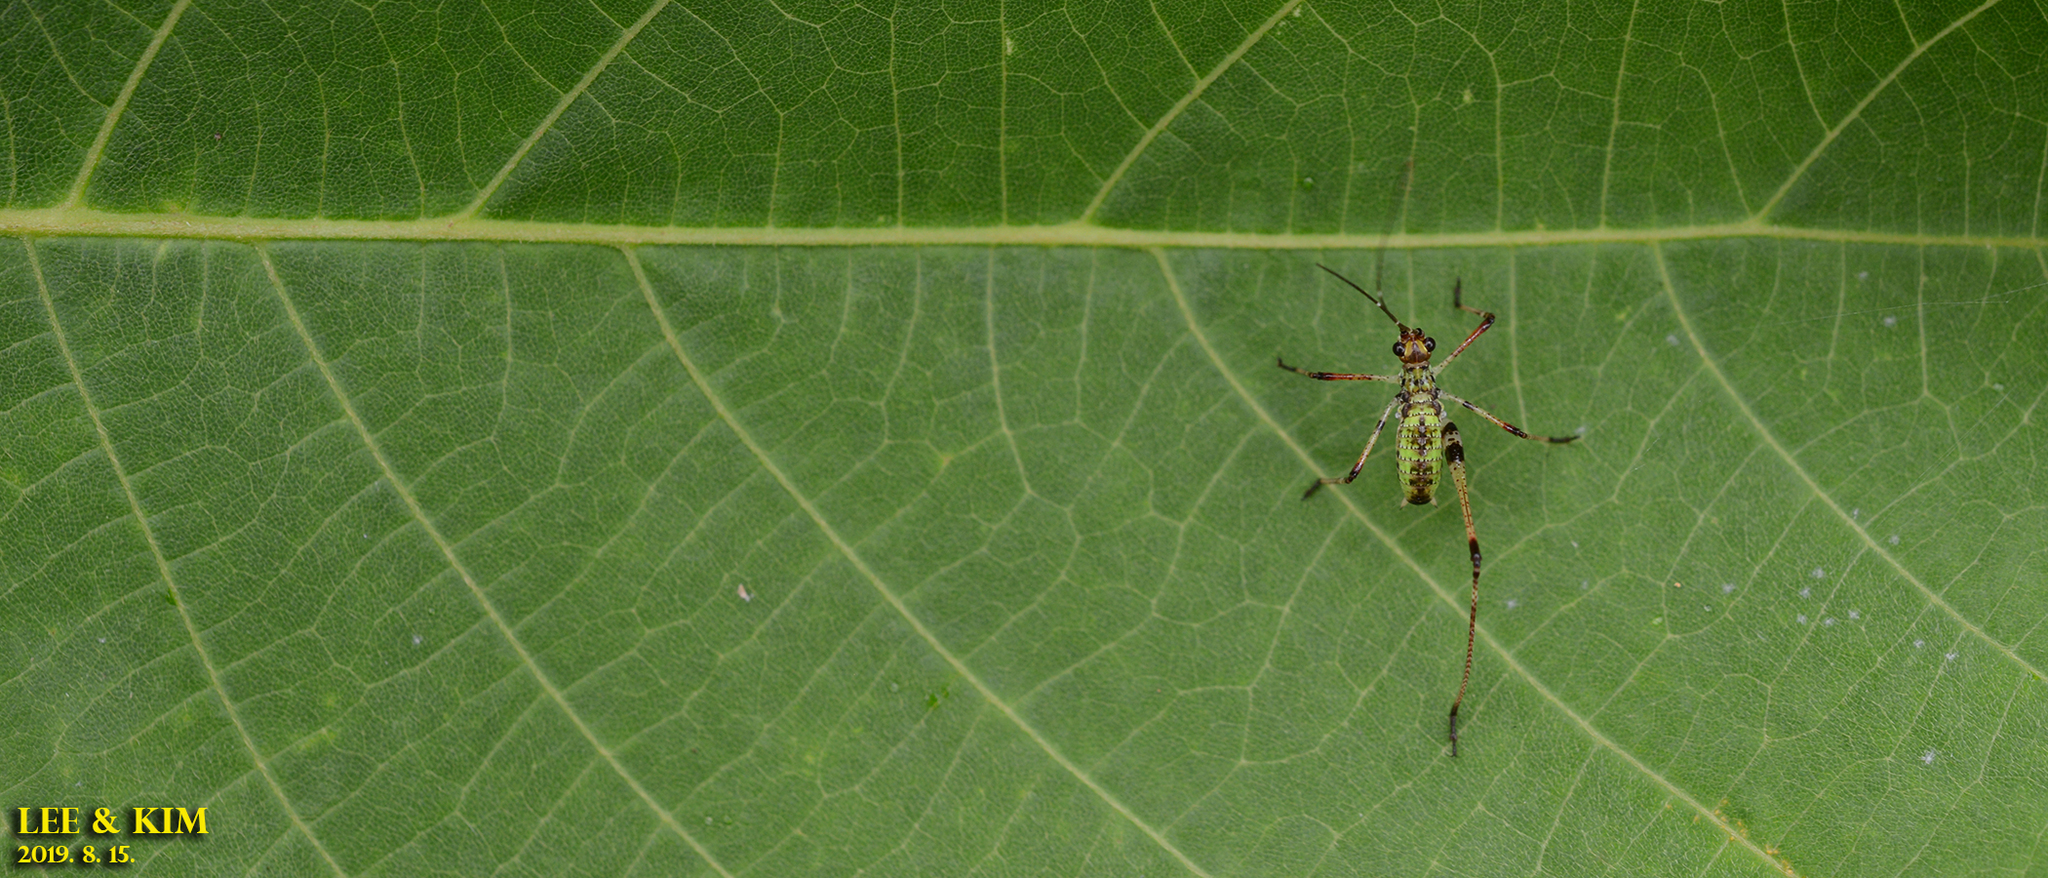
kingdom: Animalia
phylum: Arthropoda
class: Insecta
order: Orthoptera
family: Tettigoniidae
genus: Phaneroptera
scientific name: Phaneroptera nigroantennata
